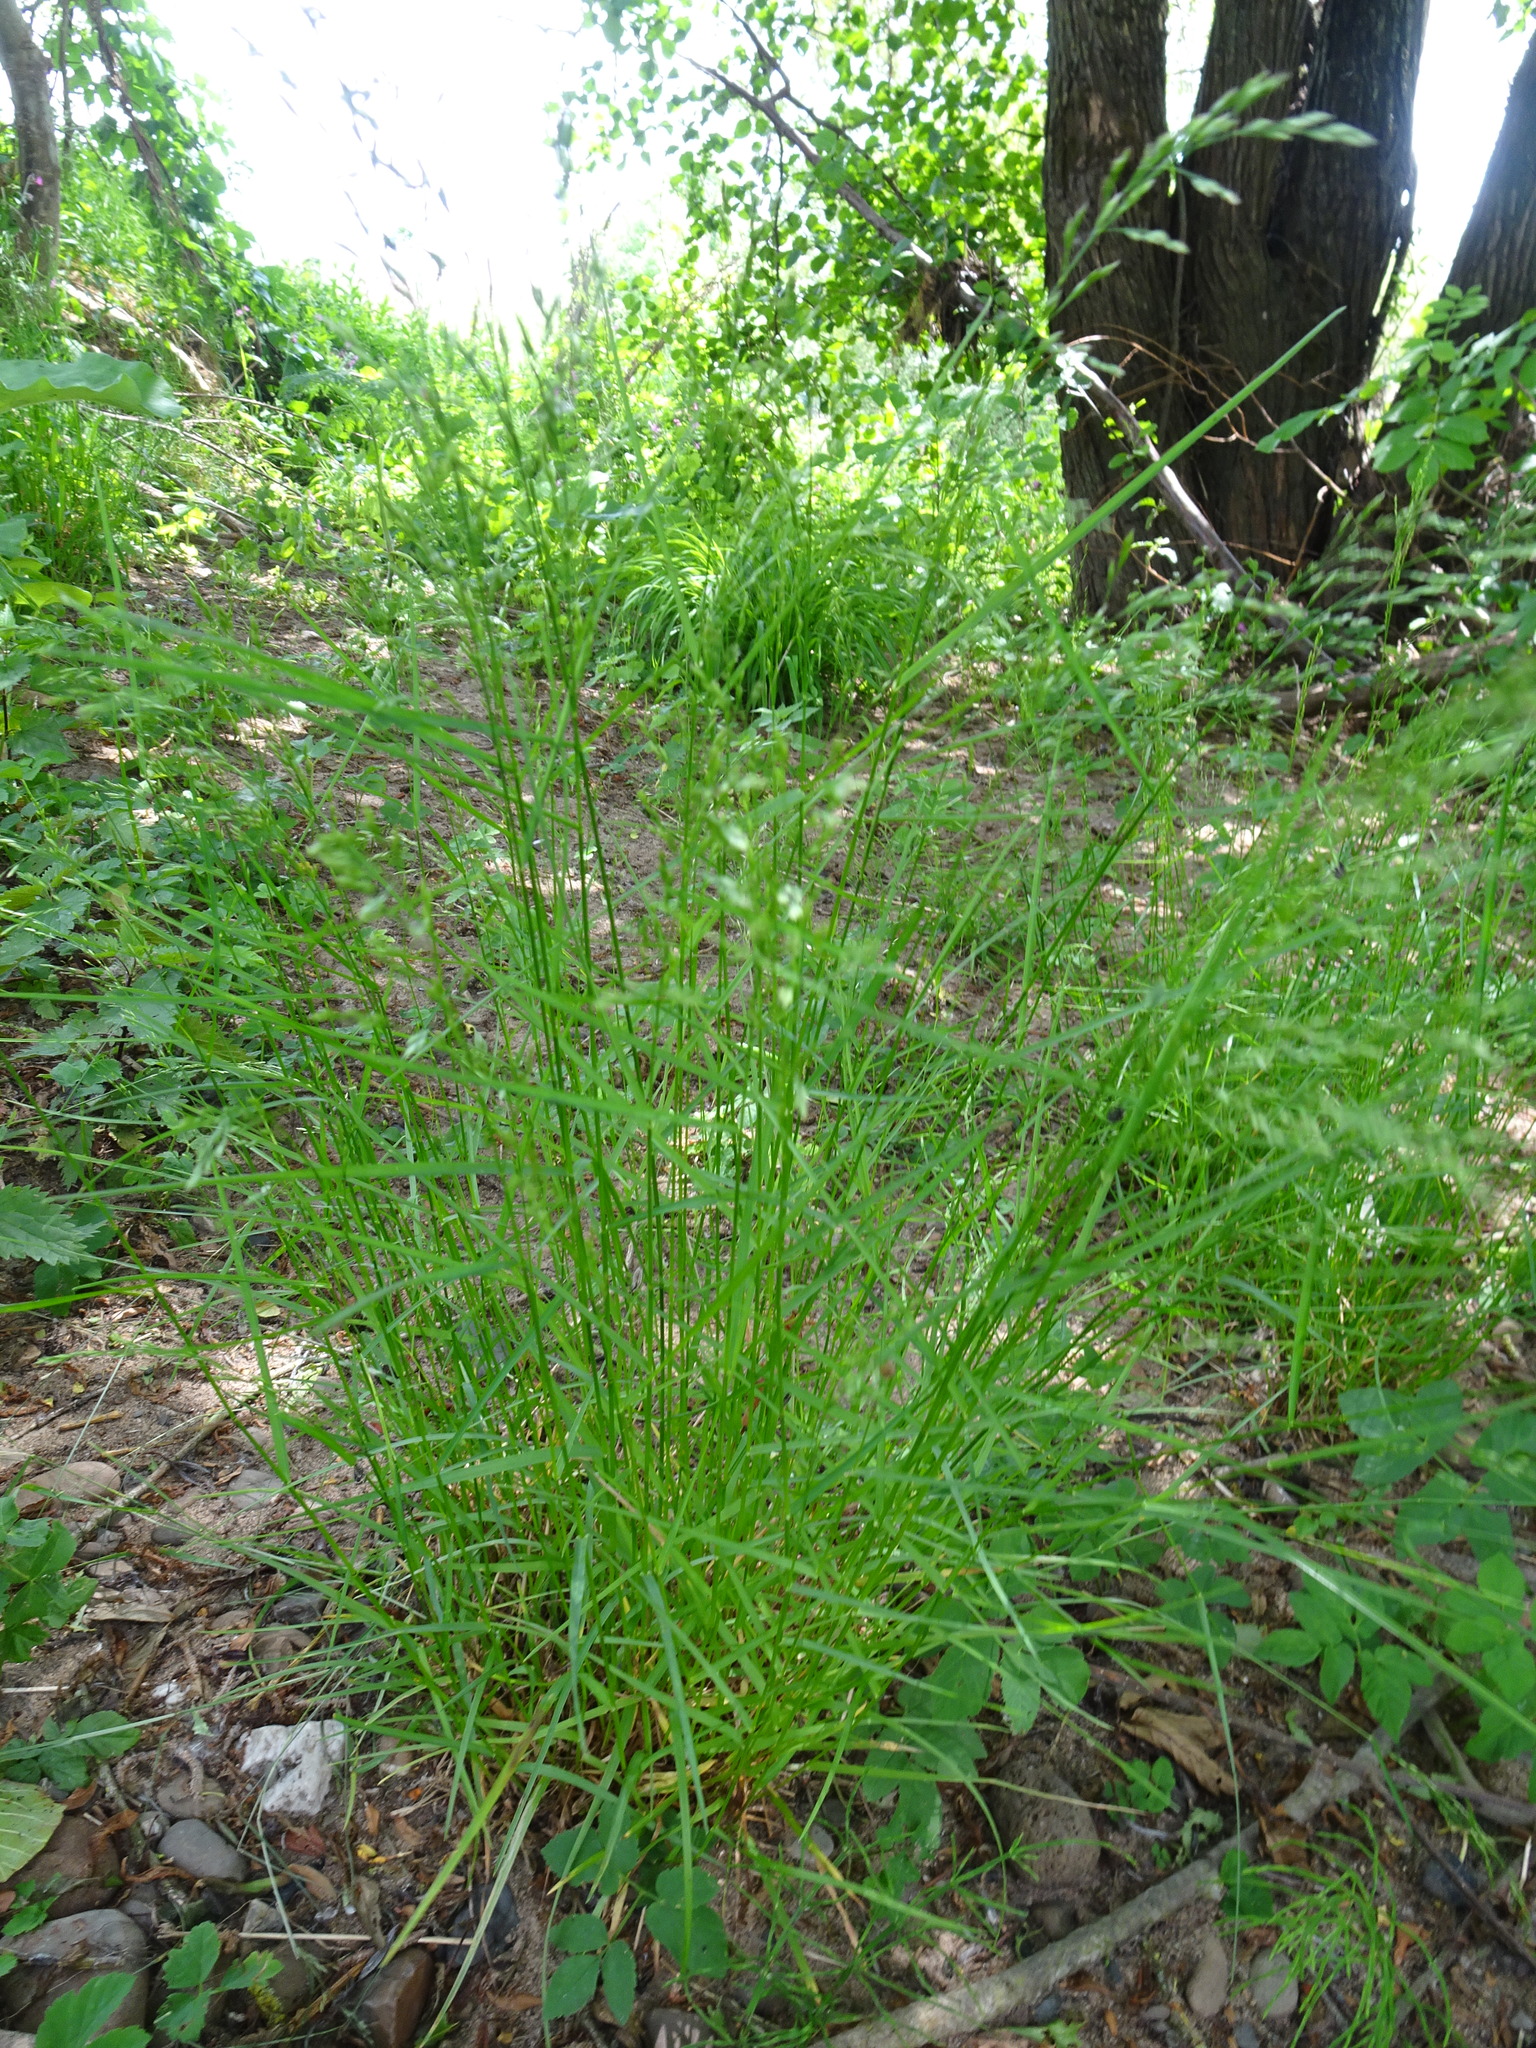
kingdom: Plantae
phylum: Tracheophyta
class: Liliopsida
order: Poales
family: Poaceae
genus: Poa
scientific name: Poa nemoralis
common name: Wood bluegrass
